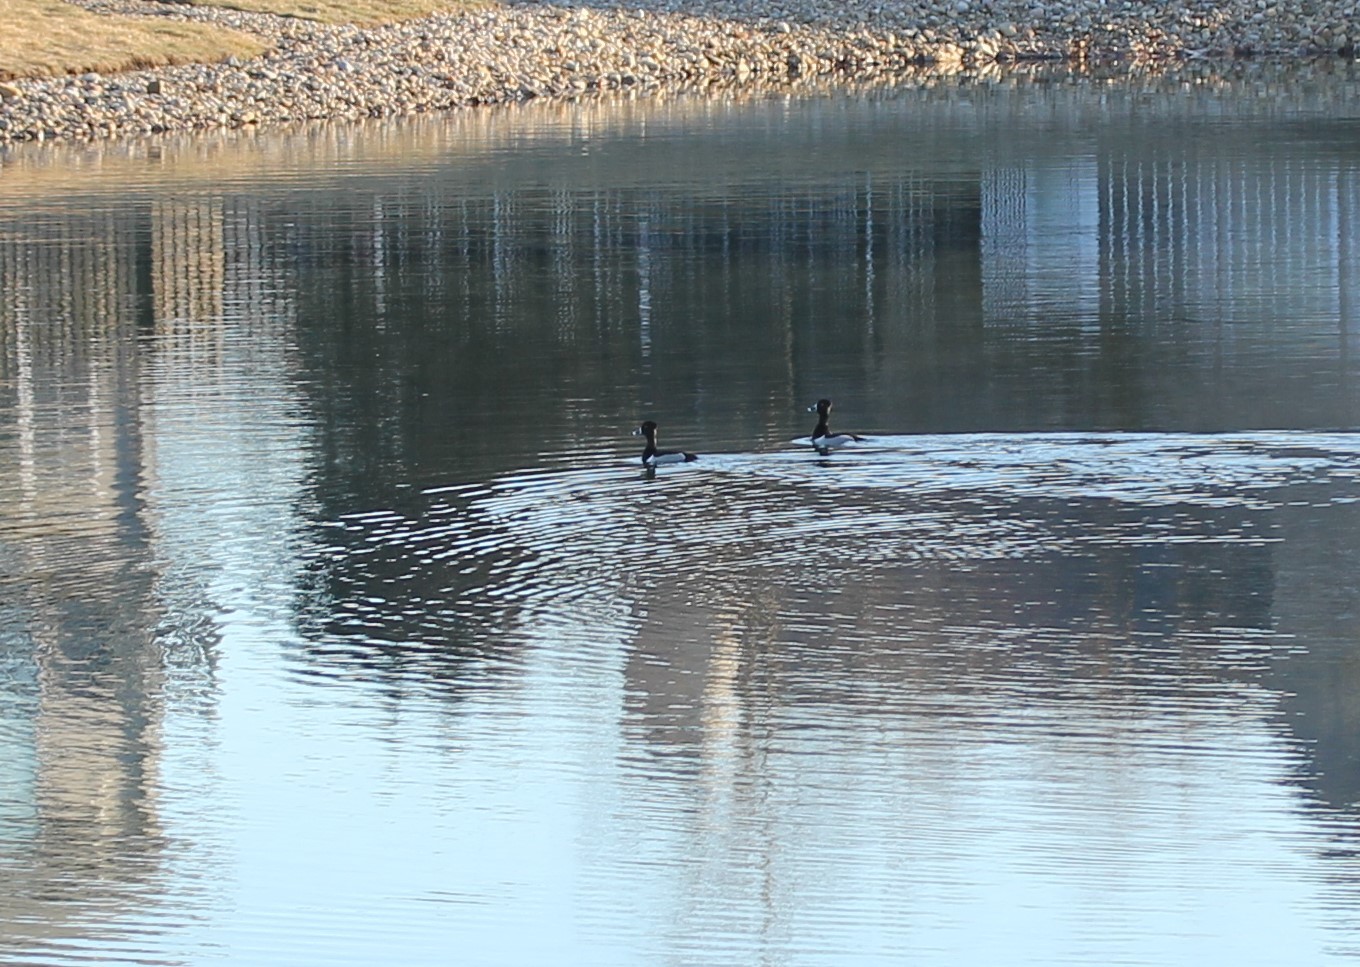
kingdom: Animalia
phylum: Chordata
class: Aves
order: Anseriformes
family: Anatidae
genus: Aythya
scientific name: Aythya collaris
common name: Ring-necked duck
